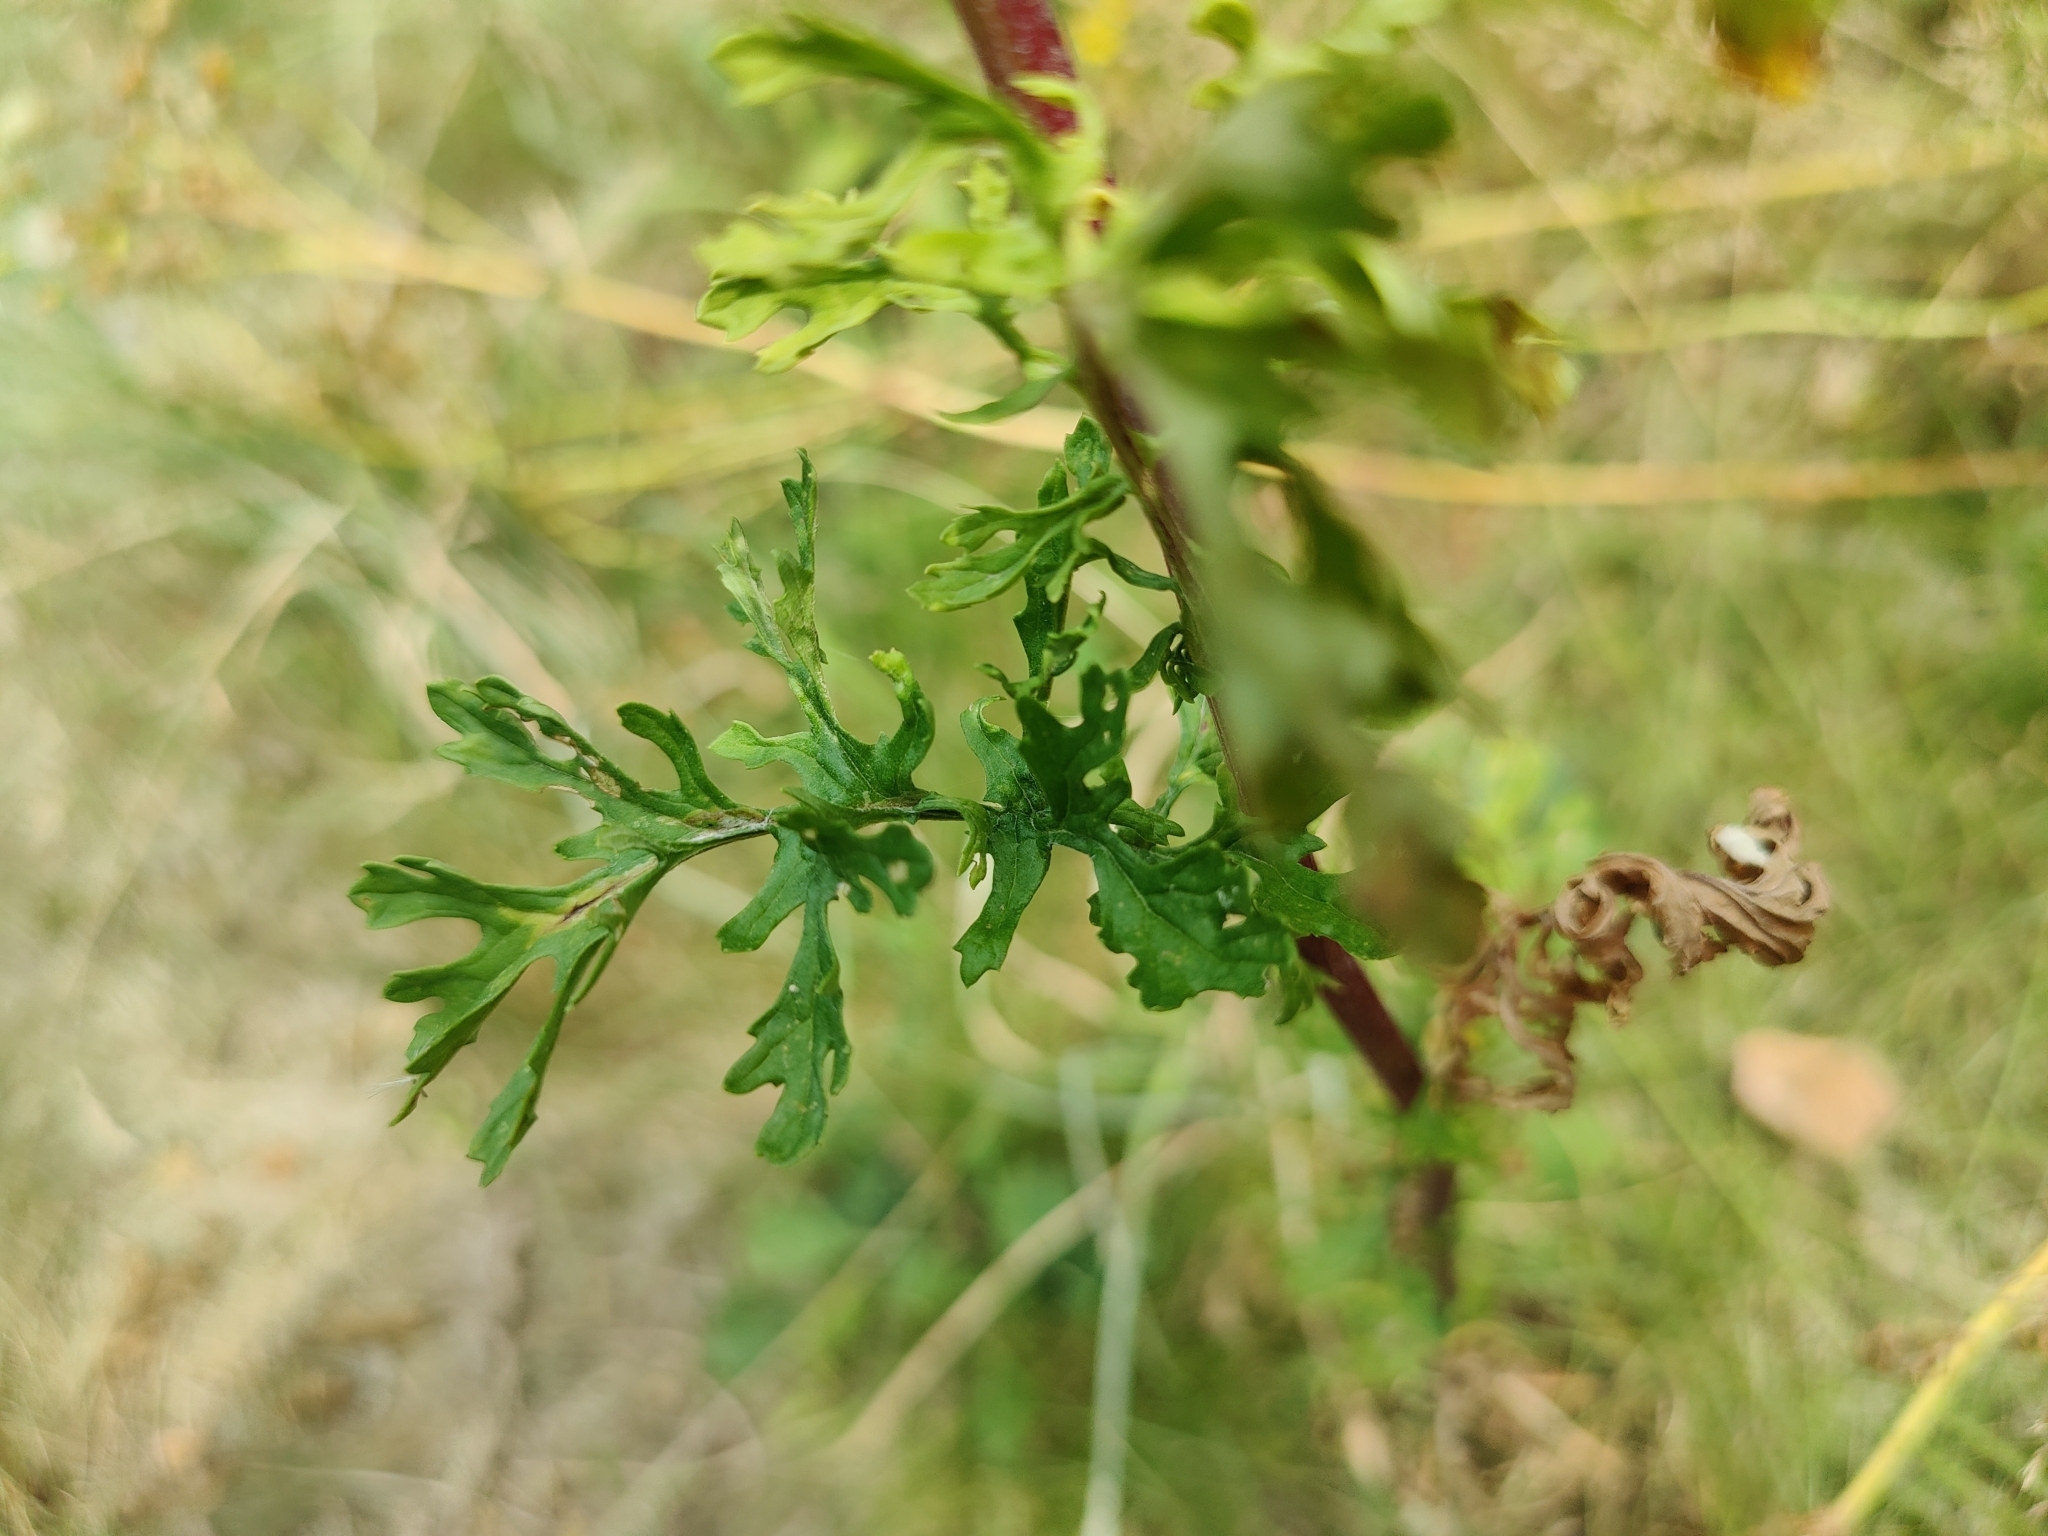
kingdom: Plantae
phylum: Tracheophyta
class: Magnoliopsida
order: Asterales
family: Asteraceae
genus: Jacobaea
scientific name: Jacobaea vulgaris
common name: Stinking willie
